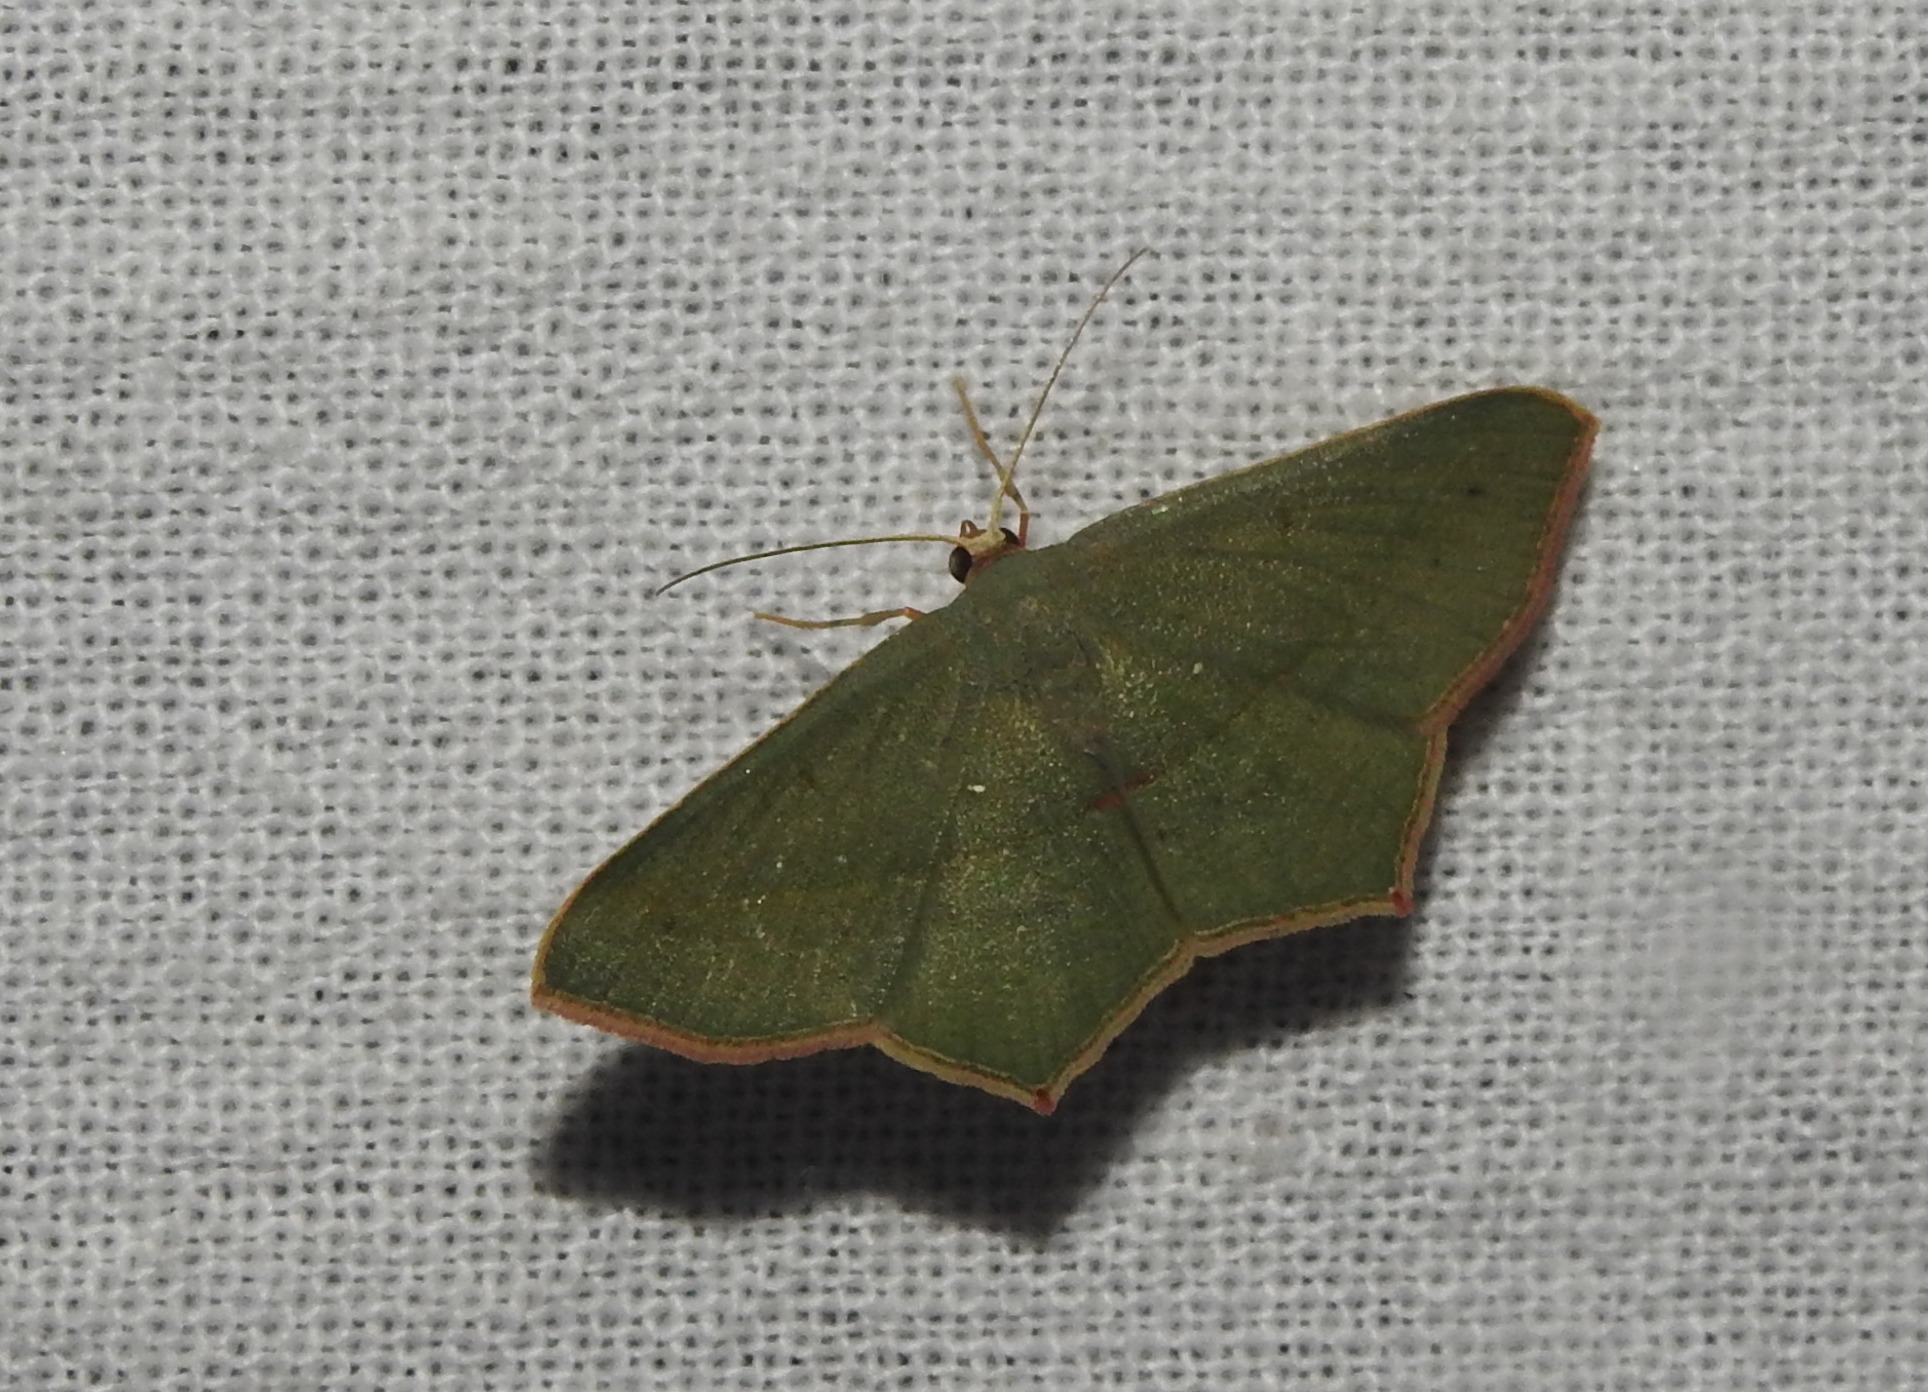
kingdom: Animalia
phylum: Arthropoda
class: Insecta
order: Lepidoptera
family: Geometridae
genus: Traminda
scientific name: Traminda mundissima
